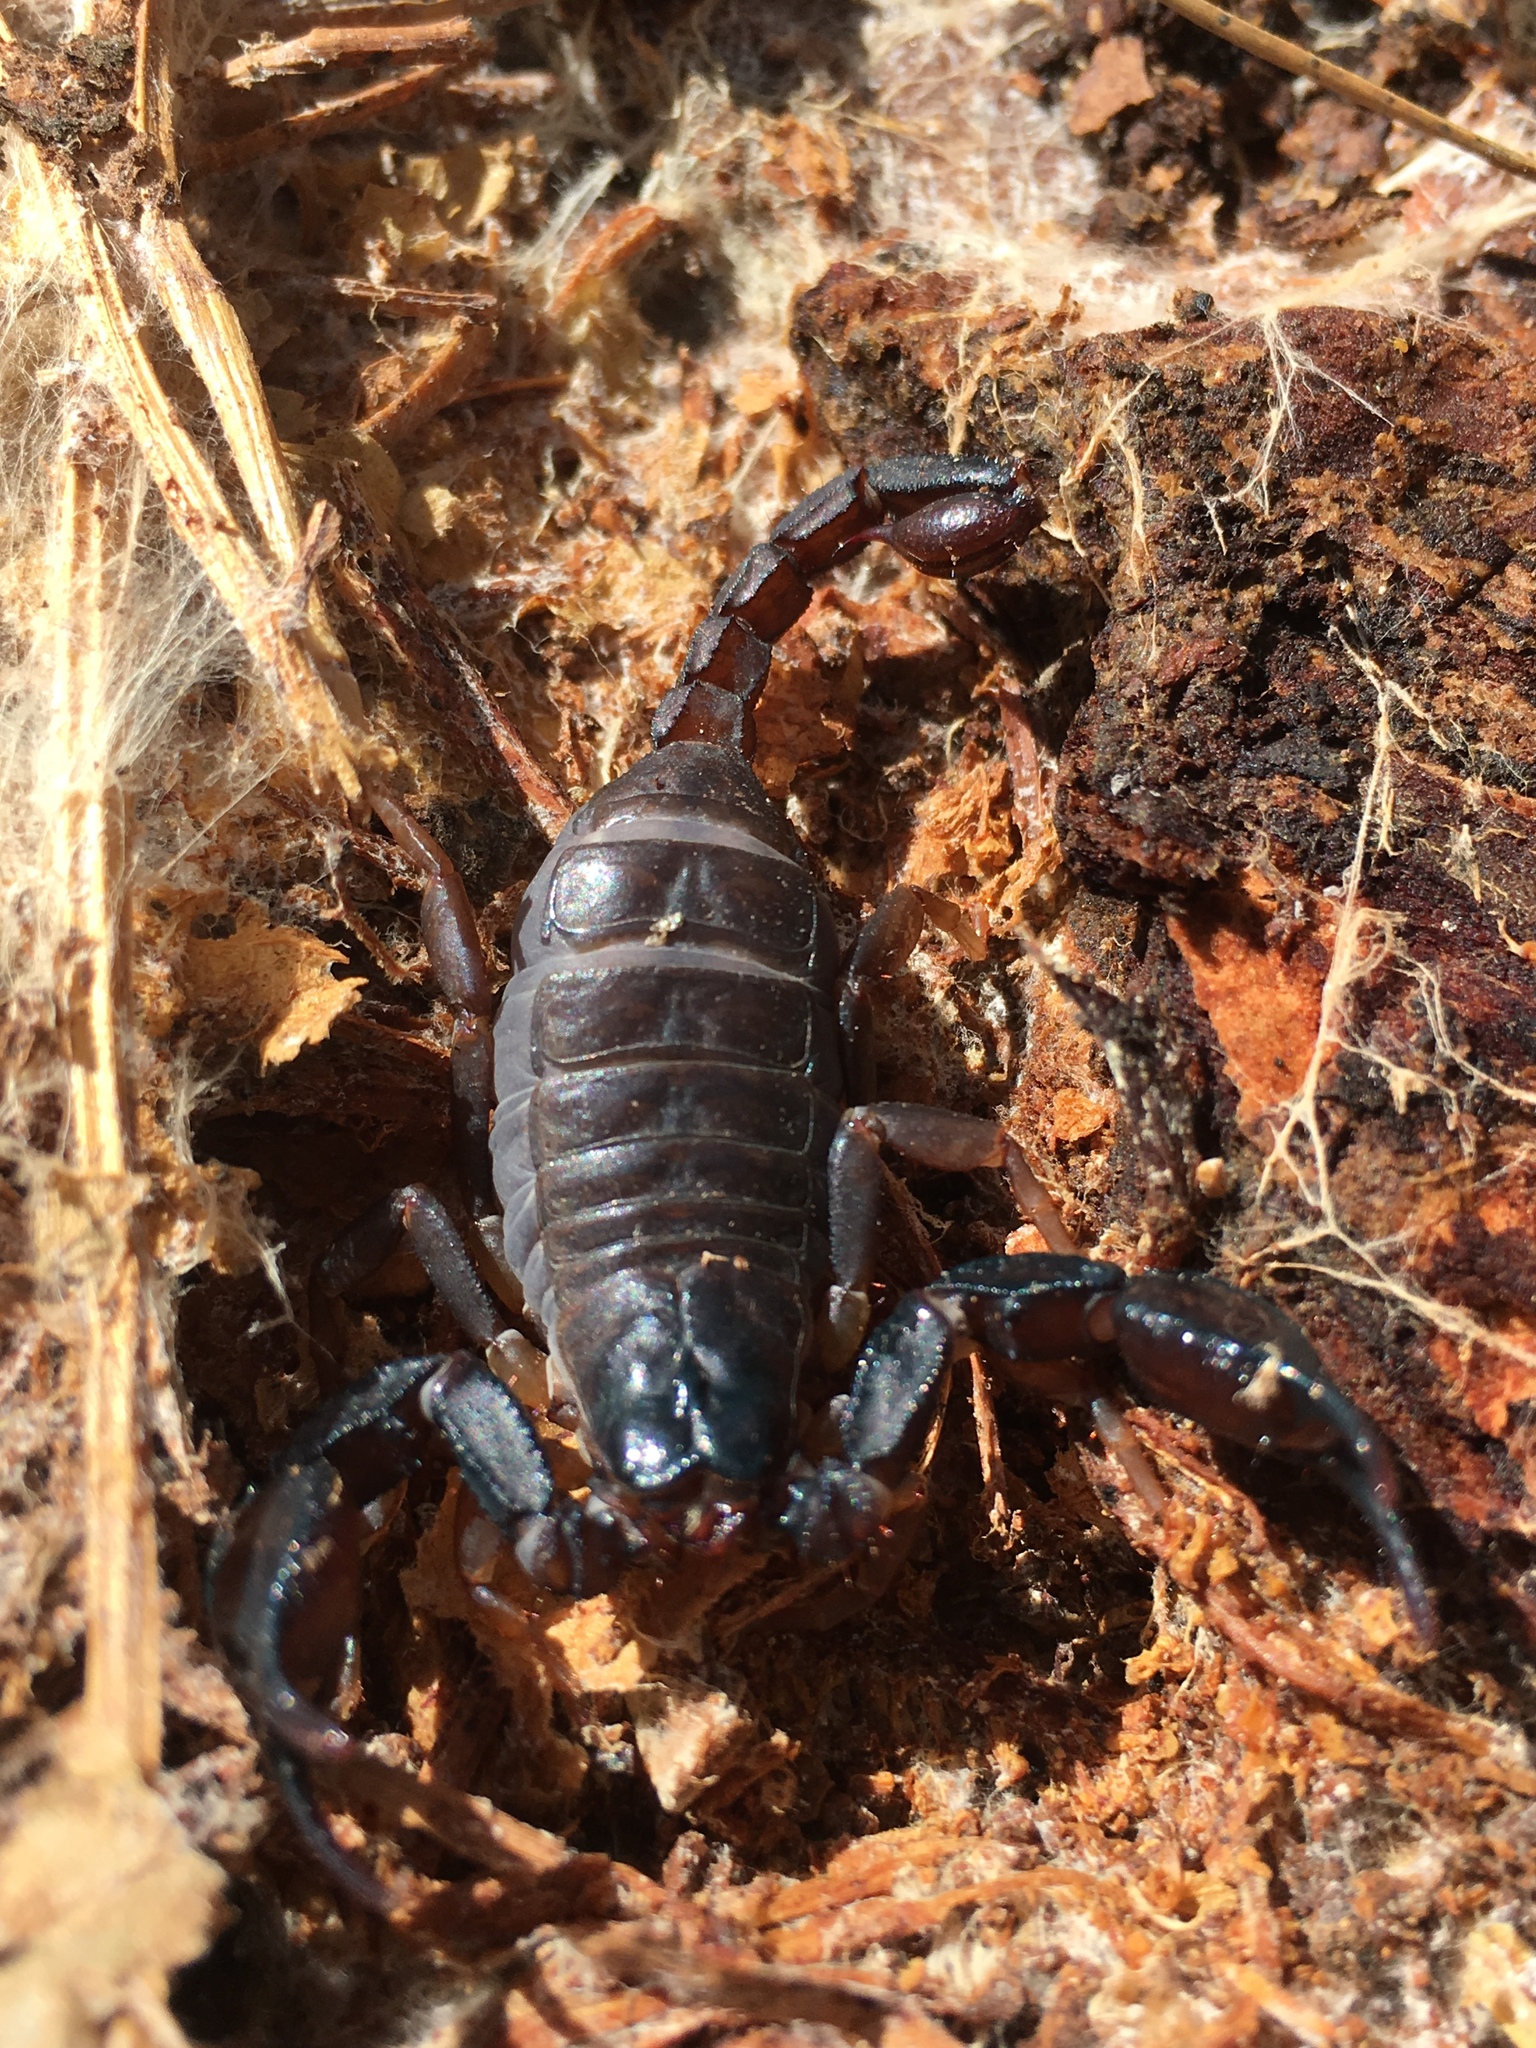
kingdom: Animalia
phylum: Arthropoda
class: Arachnida
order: Scorpiones
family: Chactidae
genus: Uroctonus
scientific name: Uroctonus mordax
